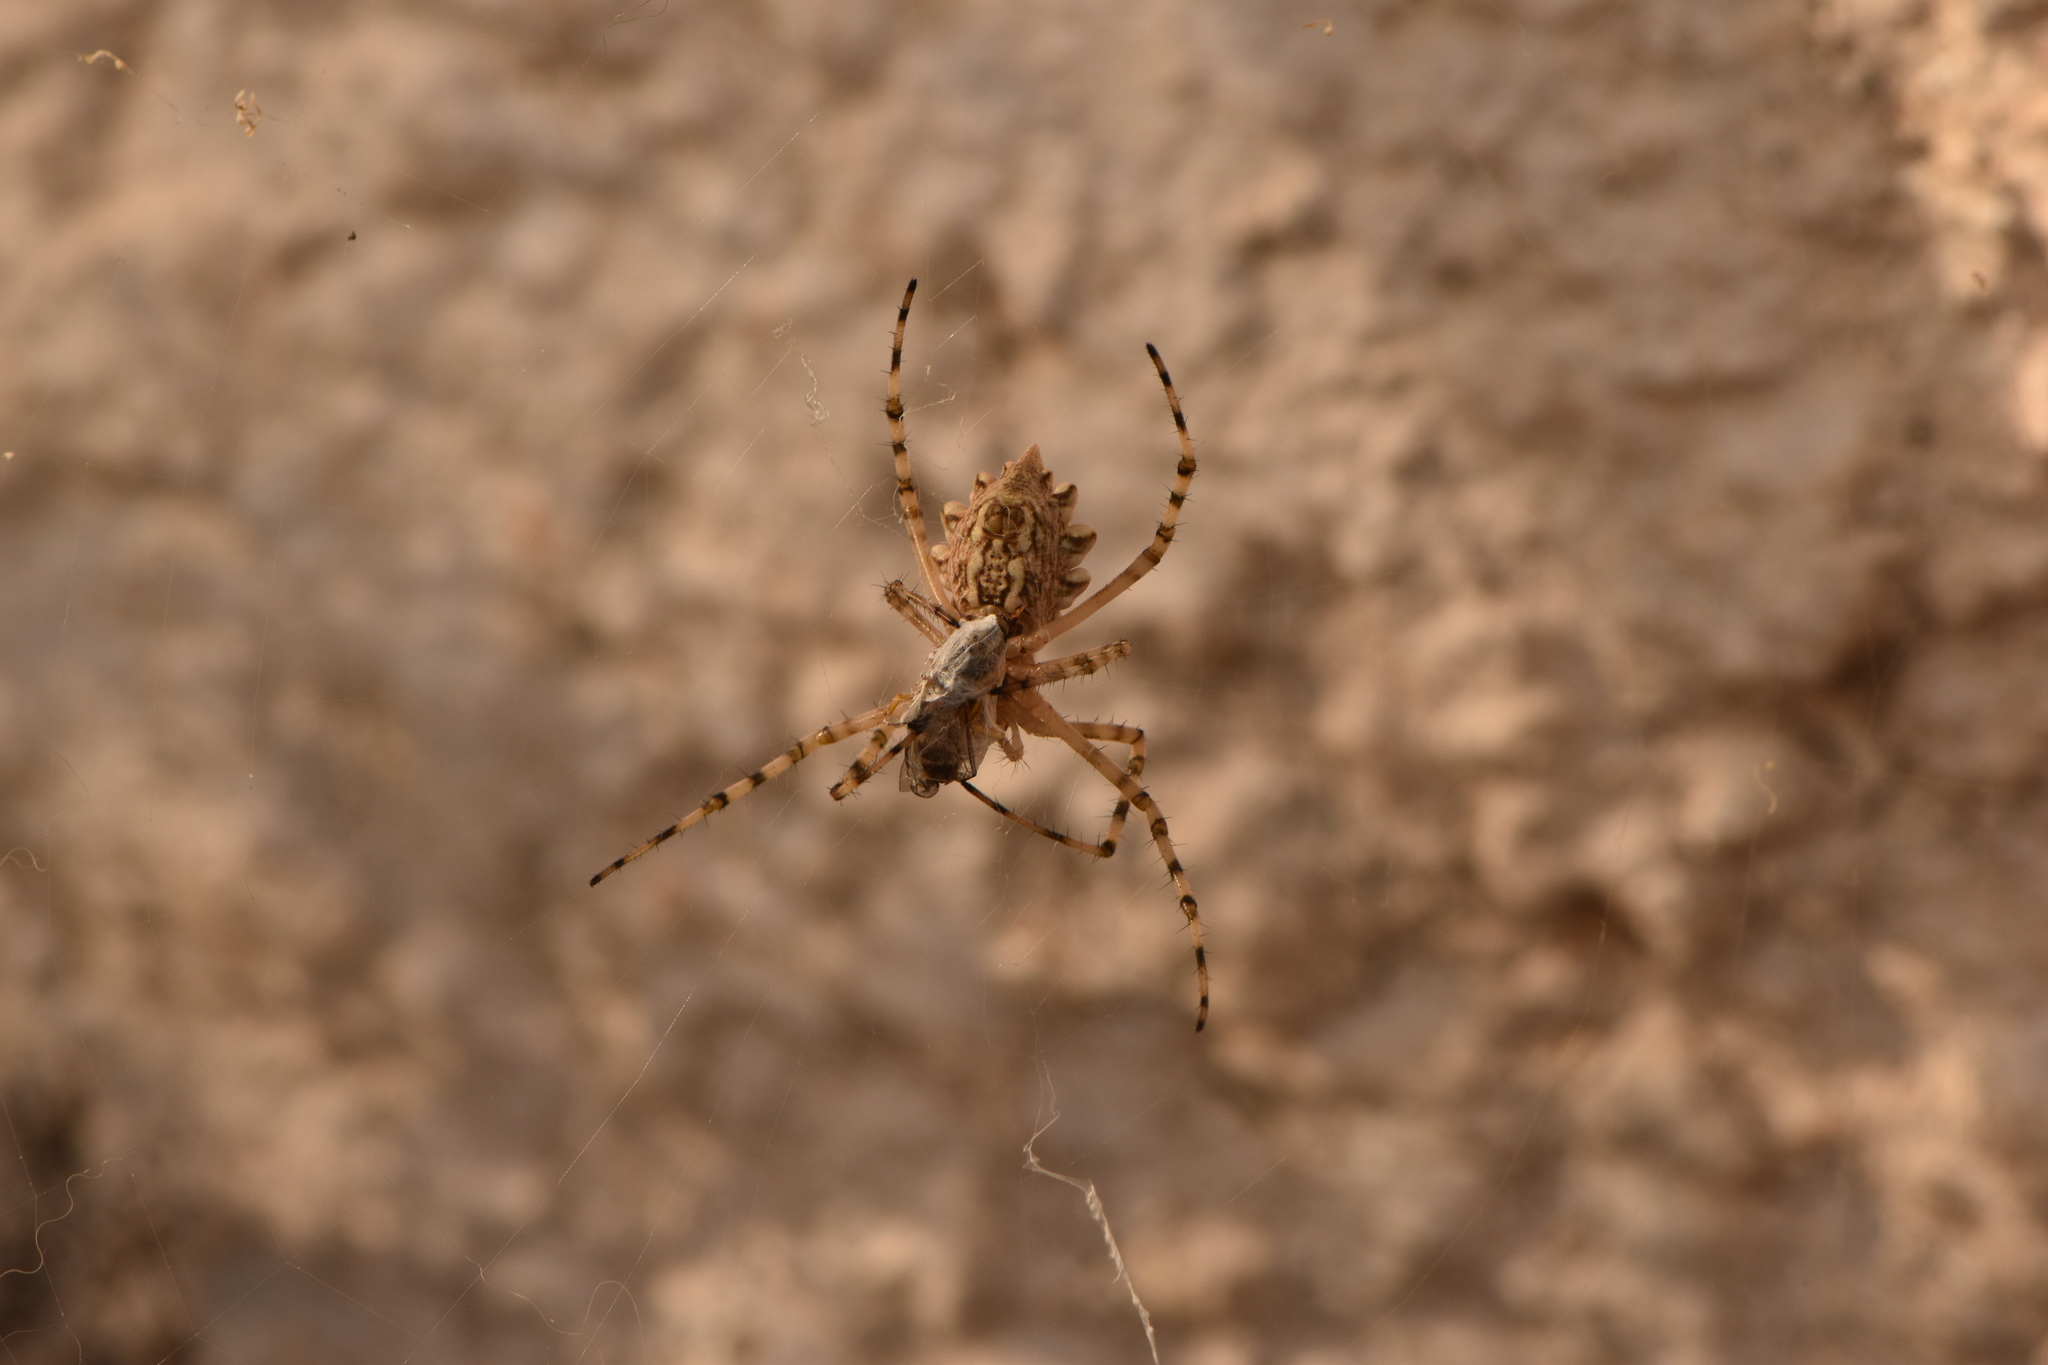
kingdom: Animalia
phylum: Arthropoda
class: Arachnida
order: Araneae
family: Araneidae
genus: Argiope
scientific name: Argiope lobata
